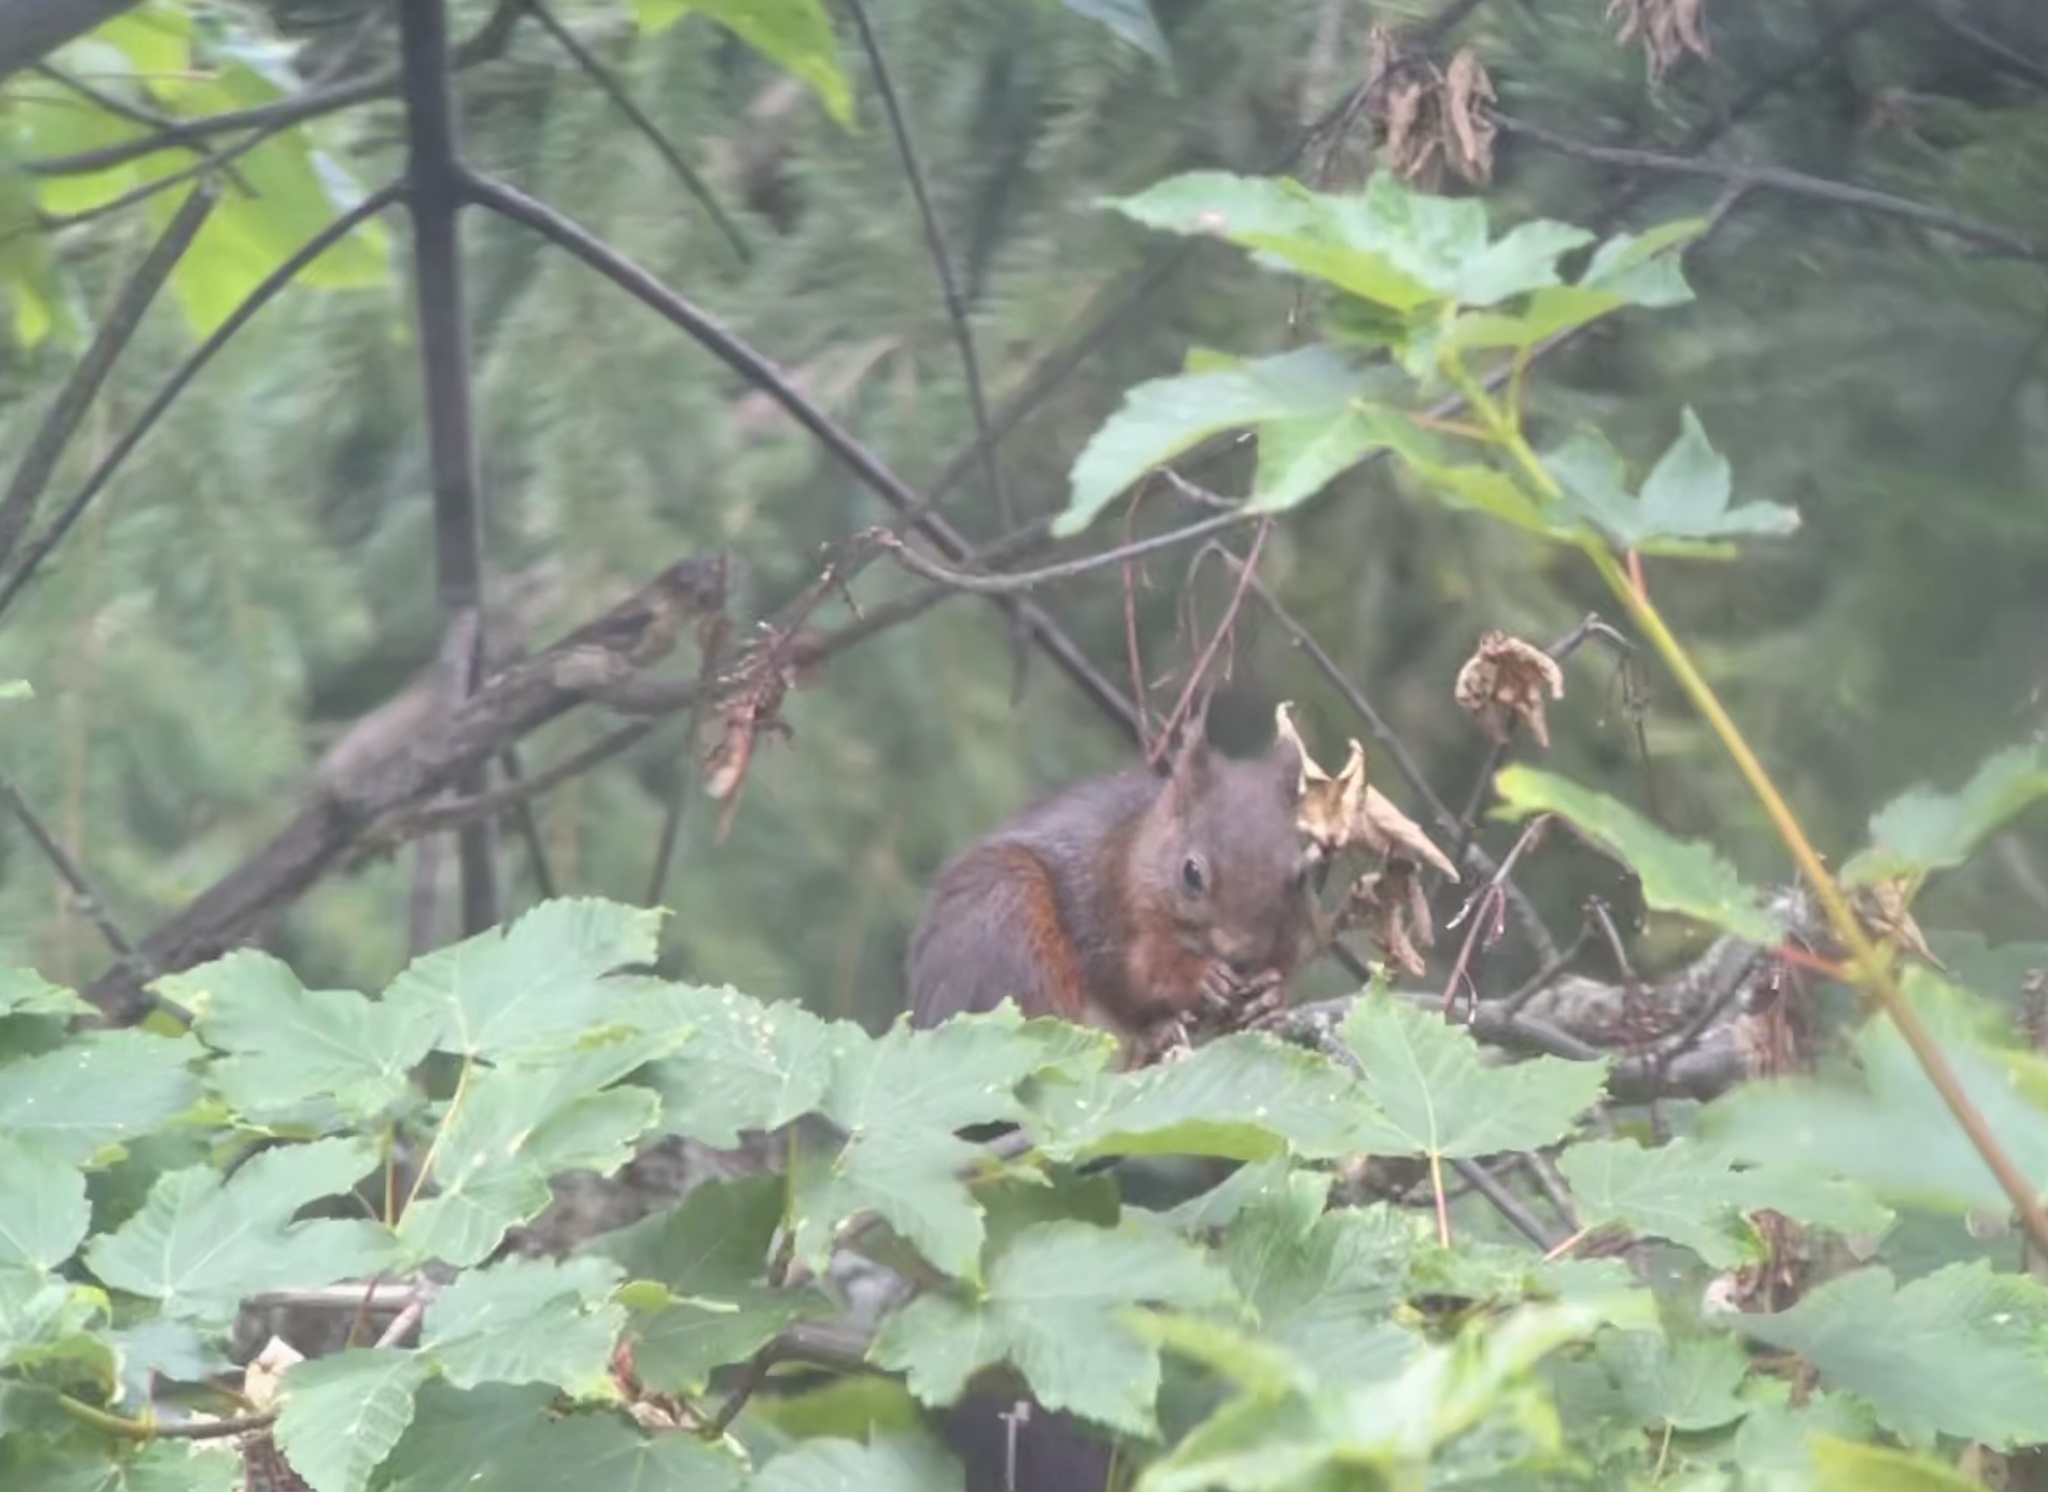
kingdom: Animalia
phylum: Chordata
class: Mammalia
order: Rodentia
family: Sciuridae
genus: Sciurus
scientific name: Sciurus vulgaris
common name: Eurasian red squirrel
